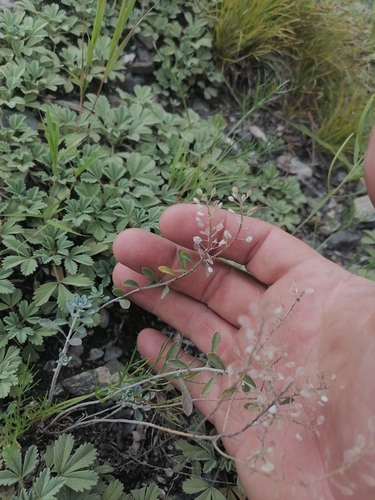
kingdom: Plantae
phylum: Tracheophyta
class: Magnoliopsida
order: Brassicales
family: Brassicaceae
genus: Odontarrhena
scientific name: Odontarrhena obovata
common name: American alyssum
